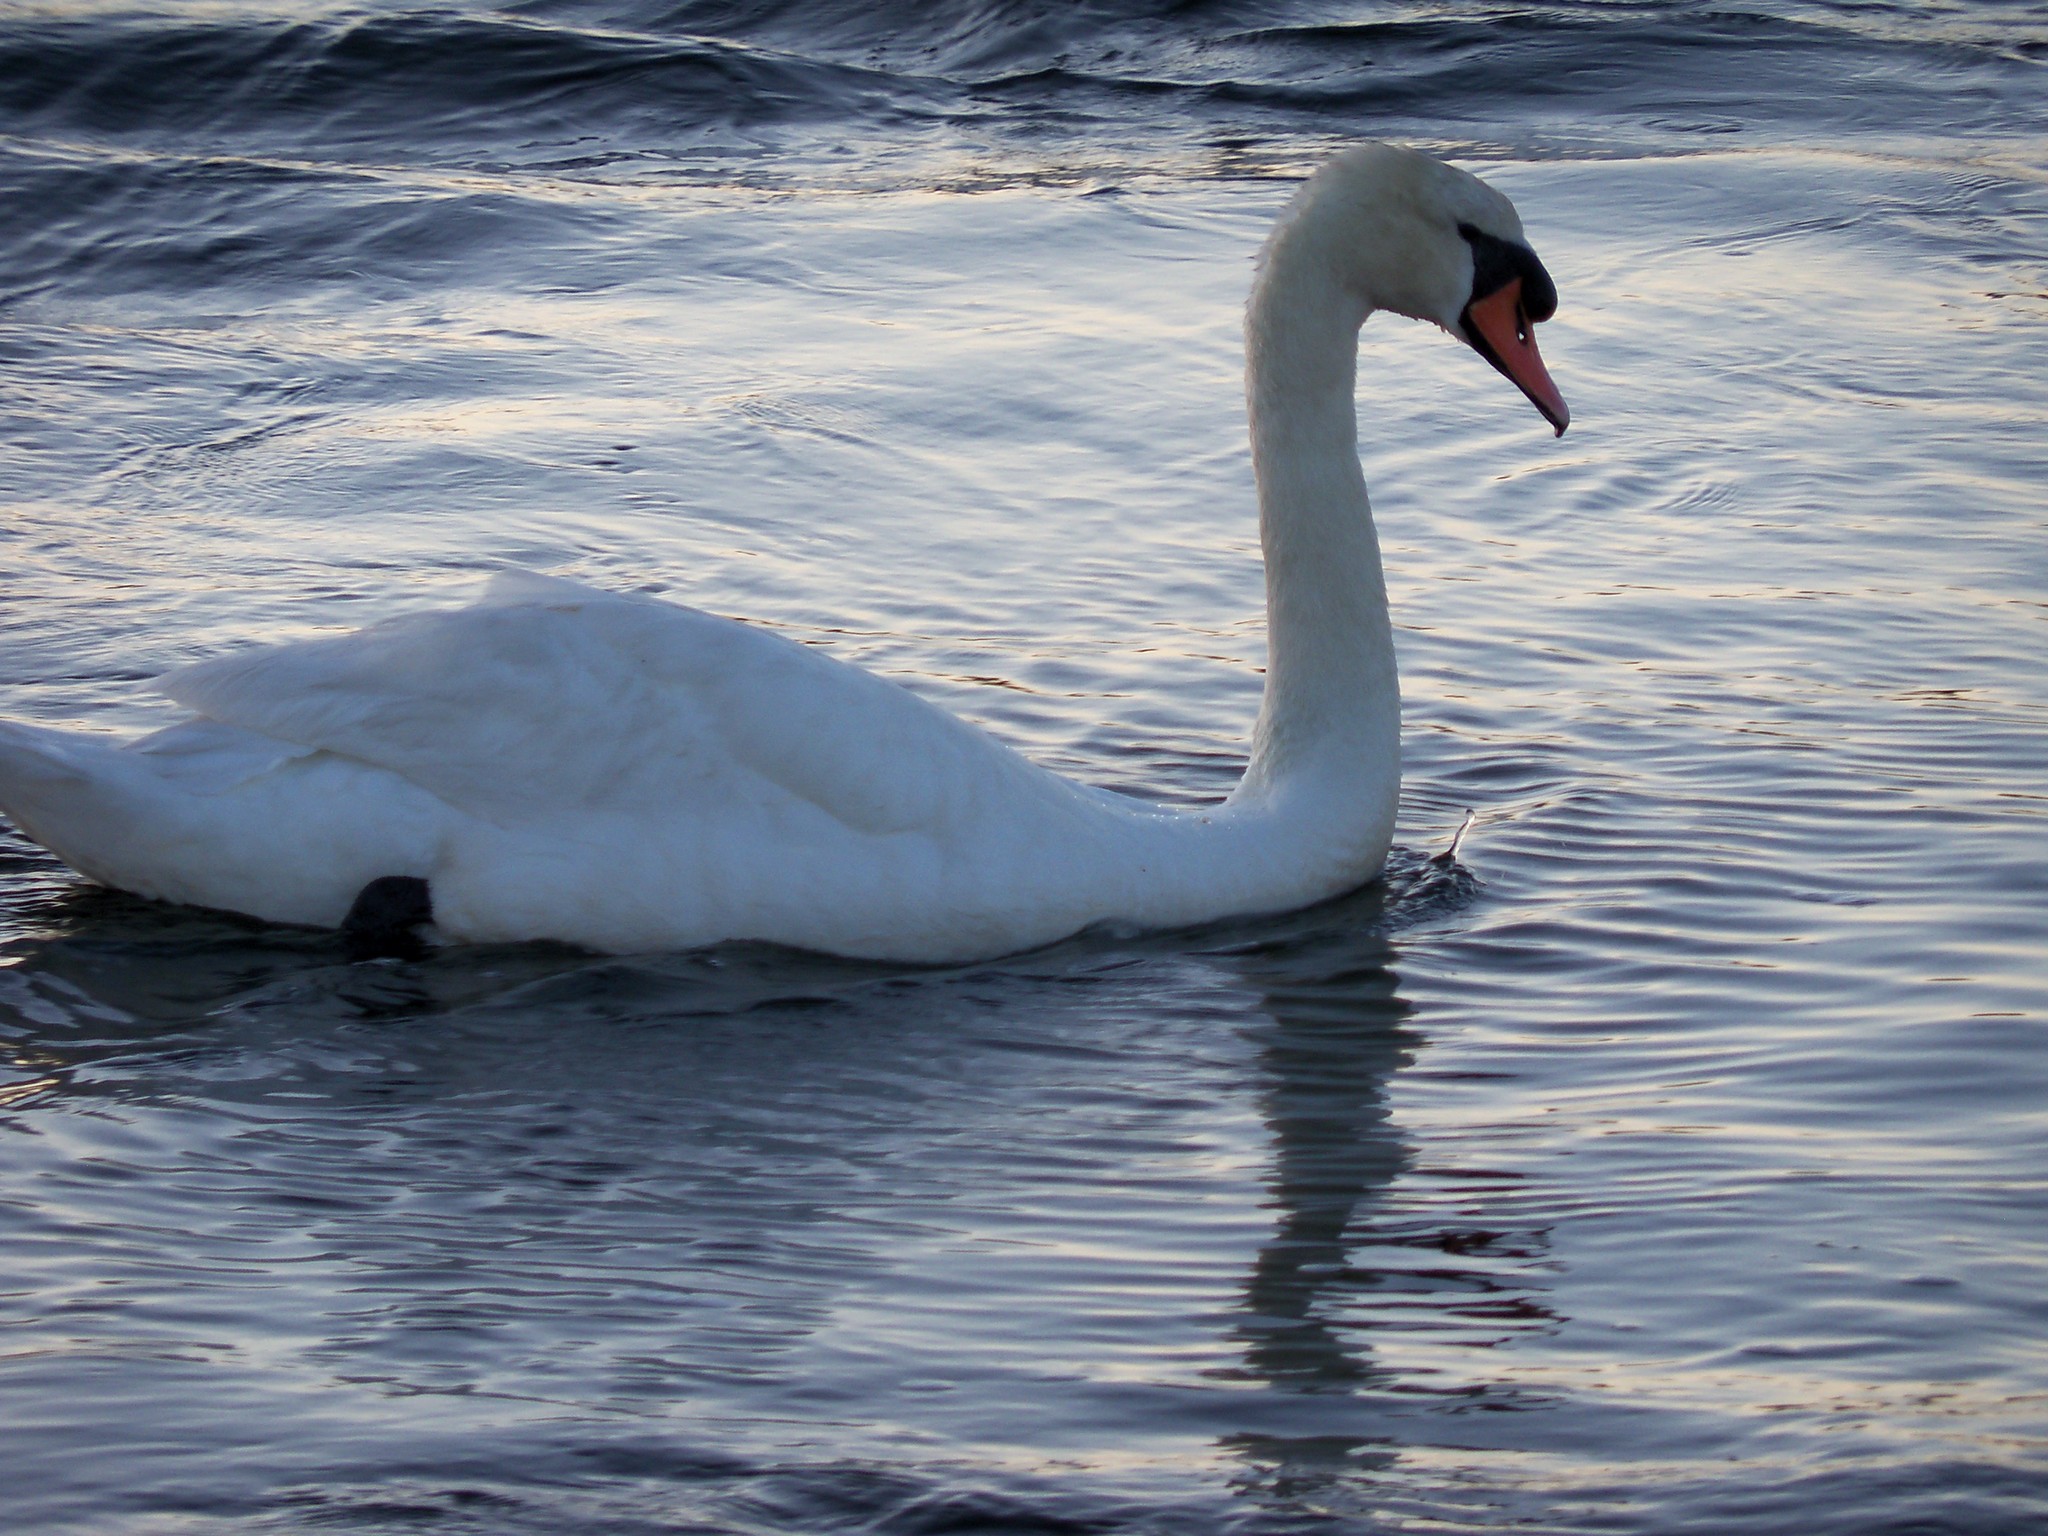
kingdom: Animalia
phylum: Chordata
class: Aves
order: Anseriformes
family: Anatidae
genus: Cygnus
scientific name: Cygnus olor
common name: Mute swan
